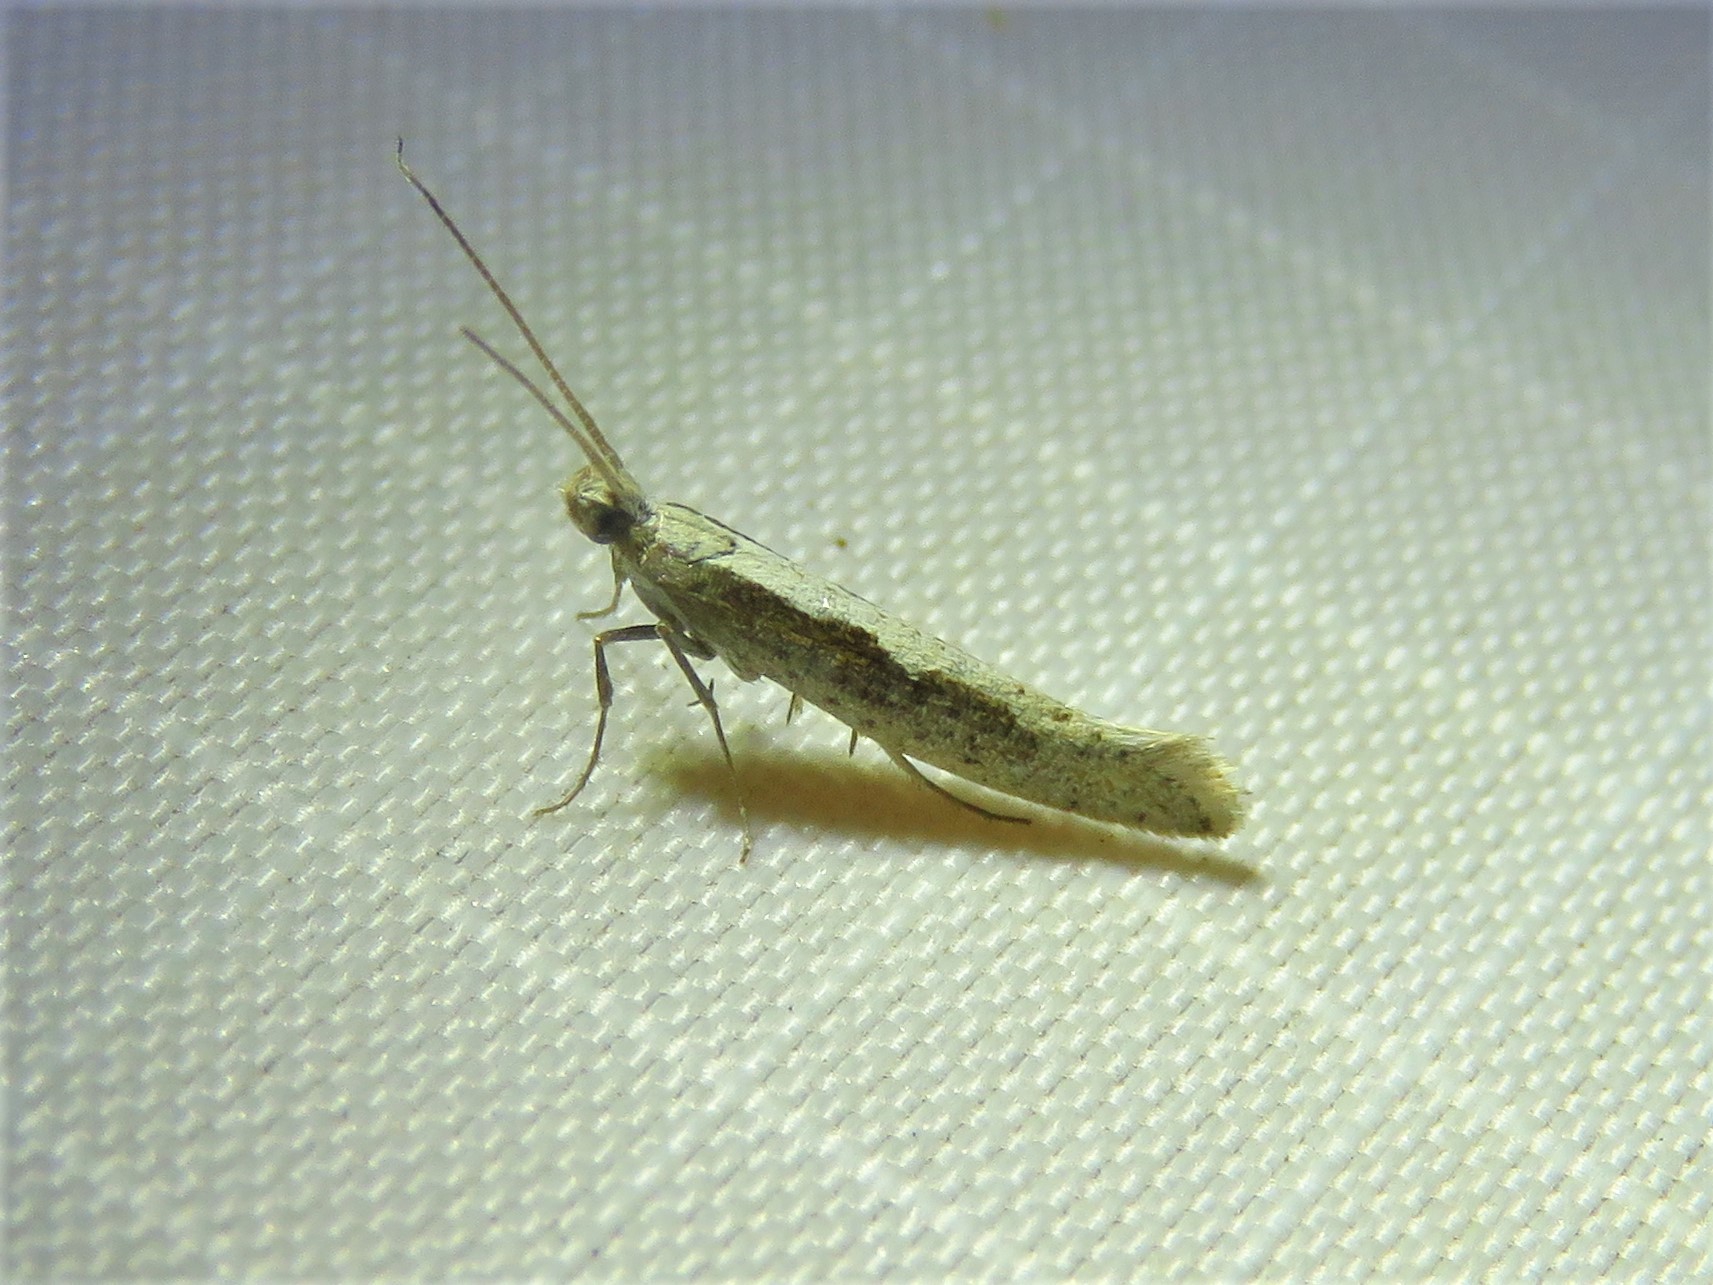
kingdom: Animalia
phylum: Arthropoda
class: Insecta
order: Lepidoptera
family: Plutellidae
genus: Plutella
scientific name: Plutella xylostella
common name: Diamond-back moth
